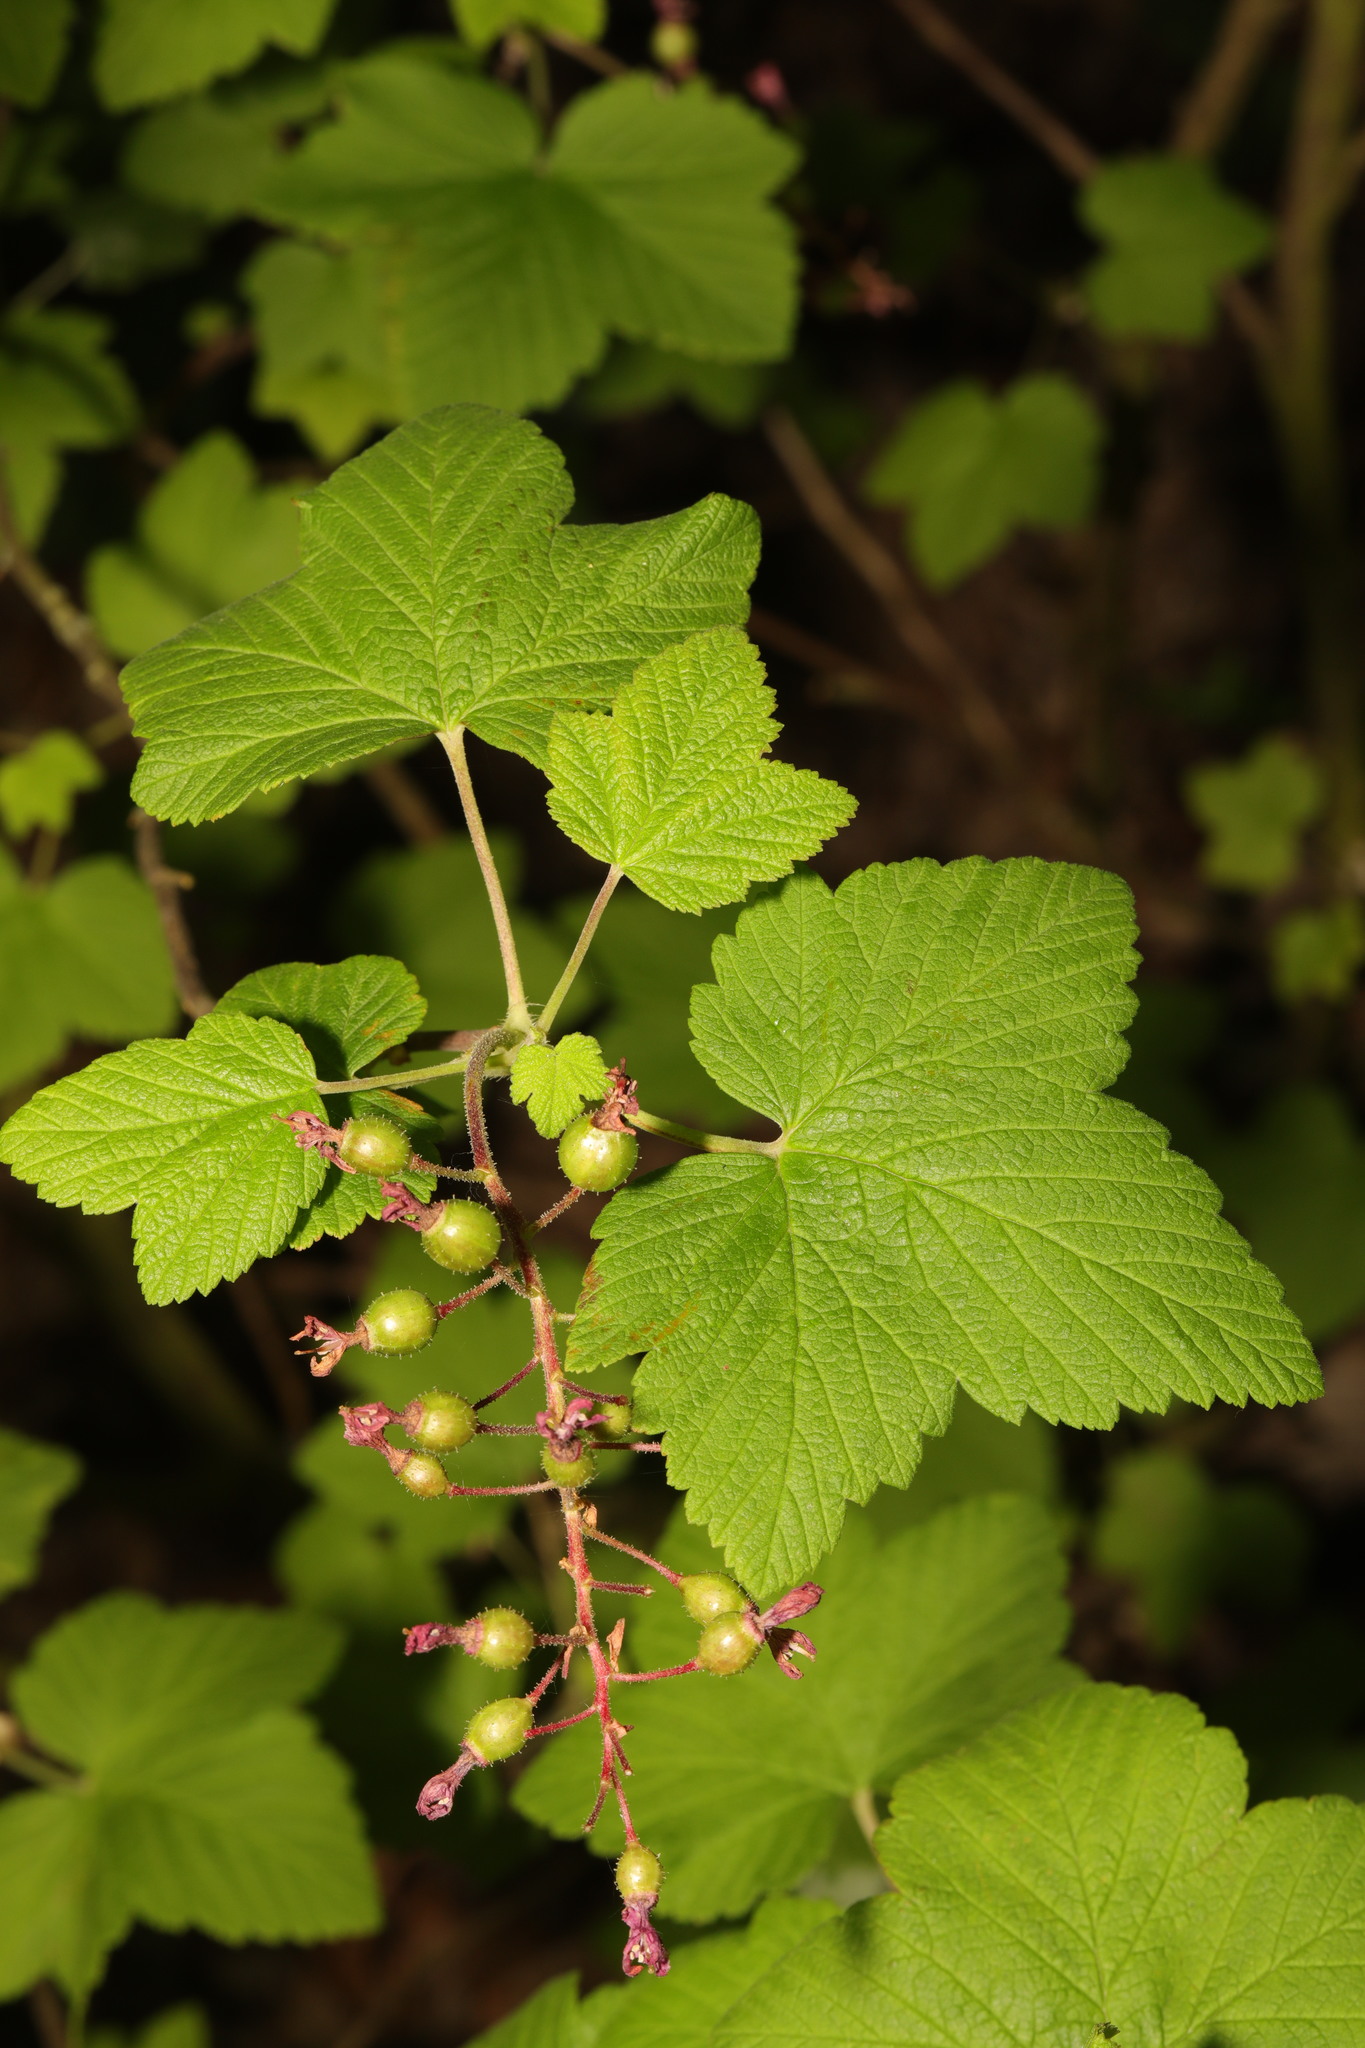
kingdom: Plantae
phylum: Tracheophyta
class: Magnoliopsida
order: Saxifragales
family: Grossulariaceae
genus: Ribes
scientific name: Ribes sanguineum
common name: Flowering currant
